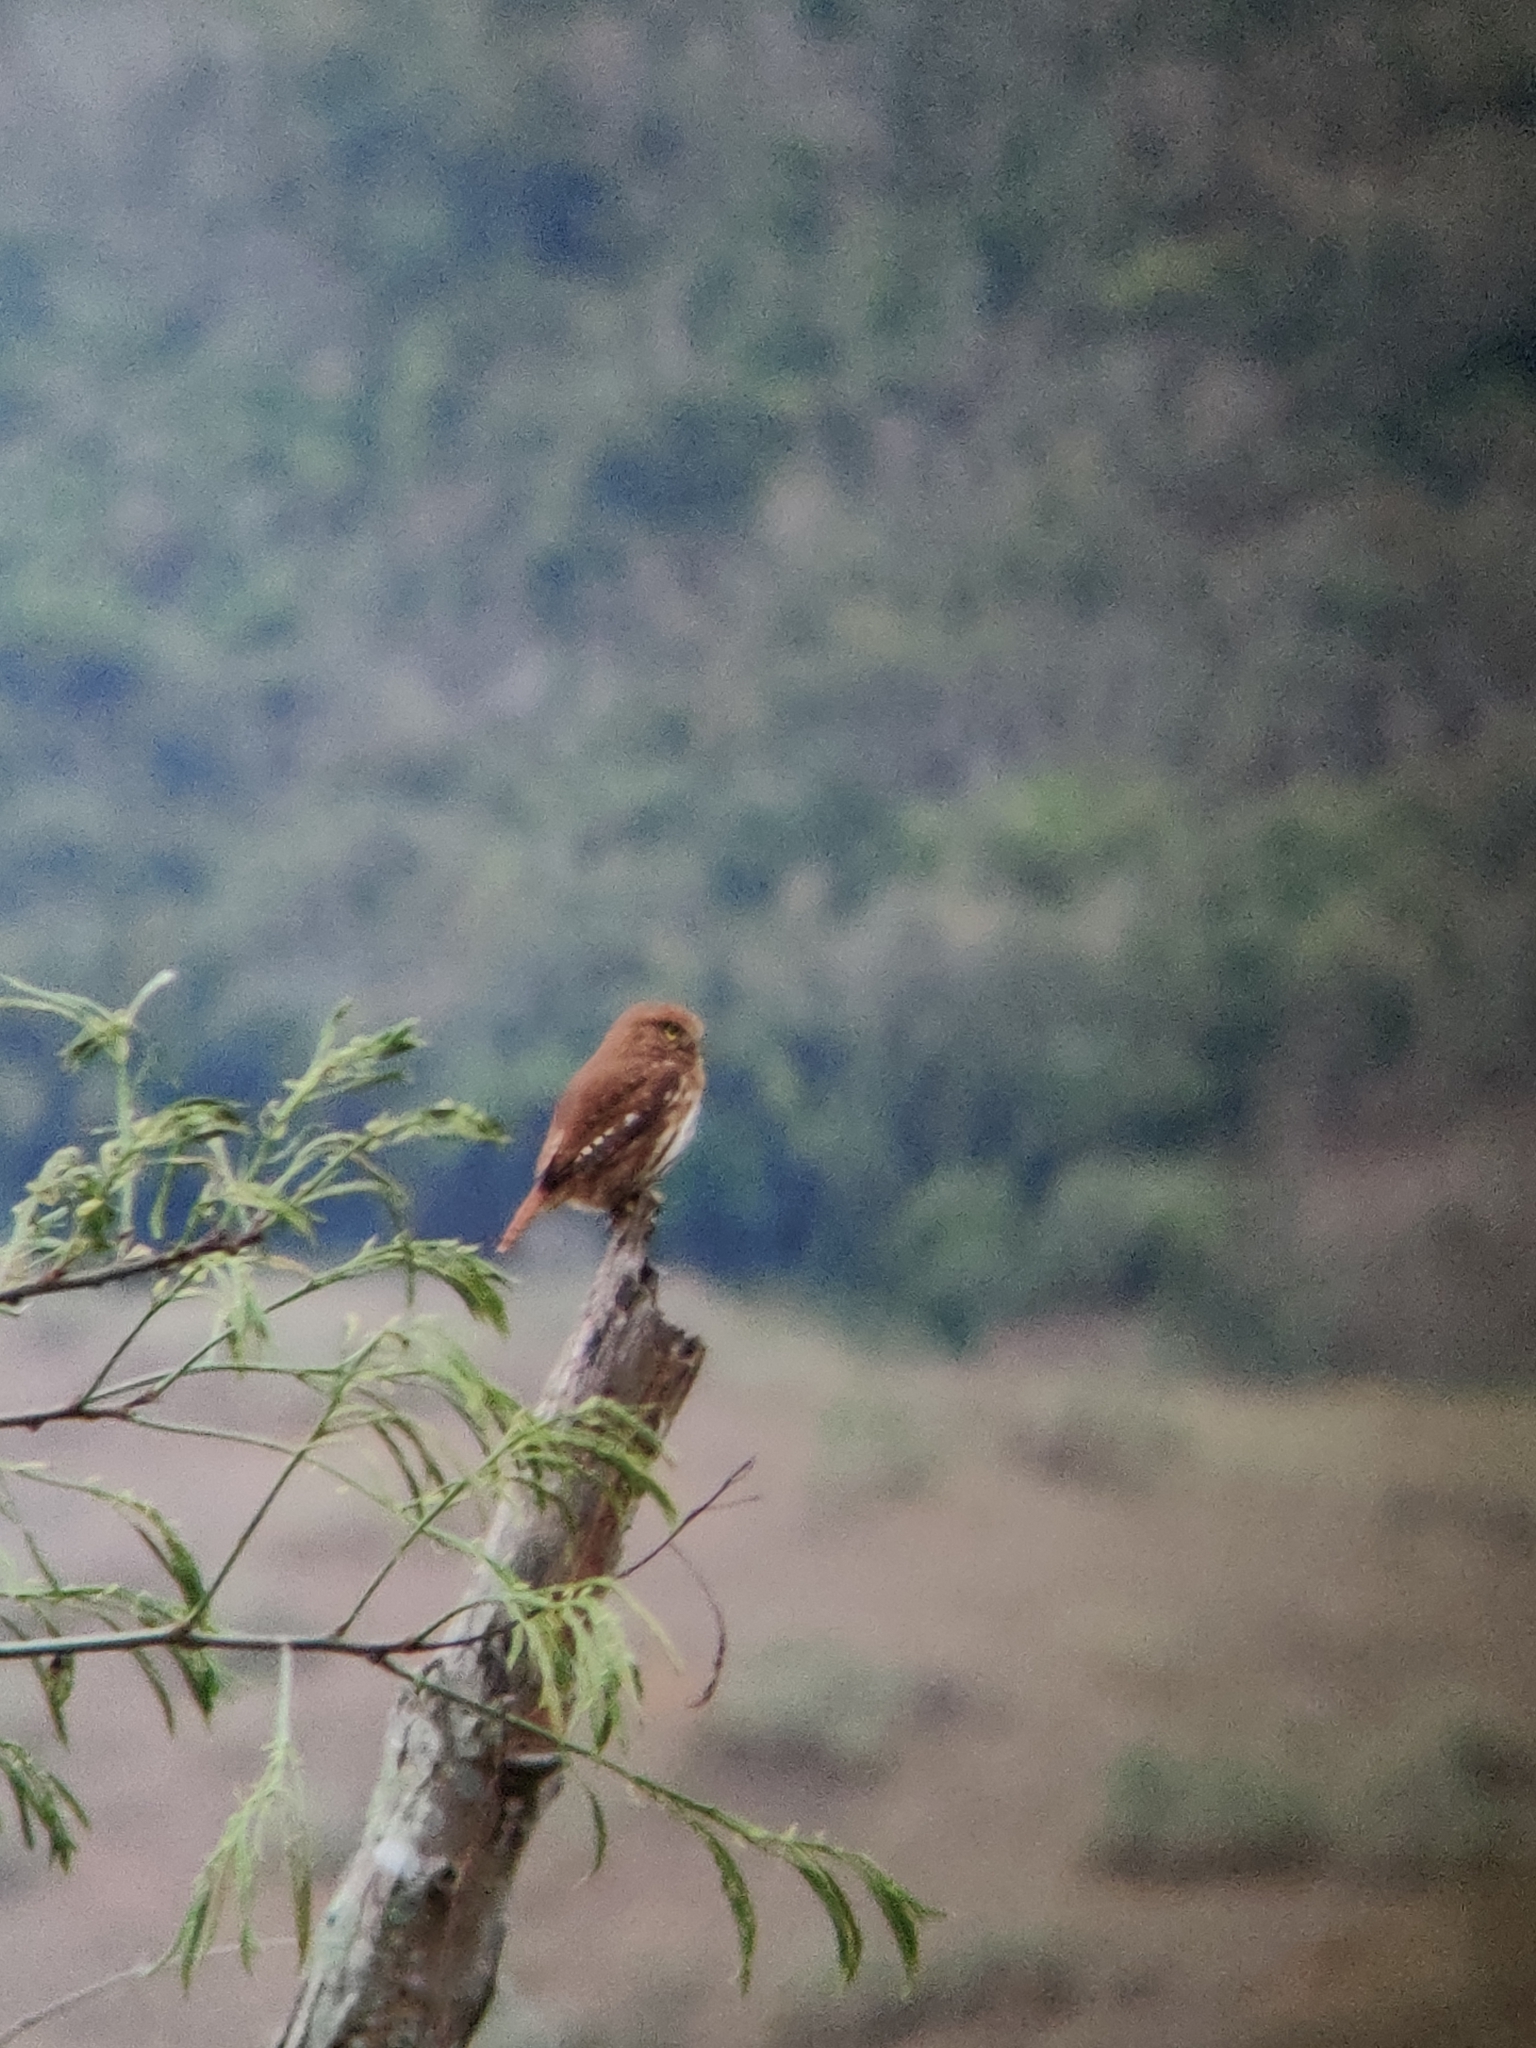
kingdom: Animalia
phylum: Chordata
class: Aves
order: Strigiformes
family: Strigidae
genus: Glaucidium
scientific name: Glaucidium brasilianum
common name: Ferruginous pygmy-owl
